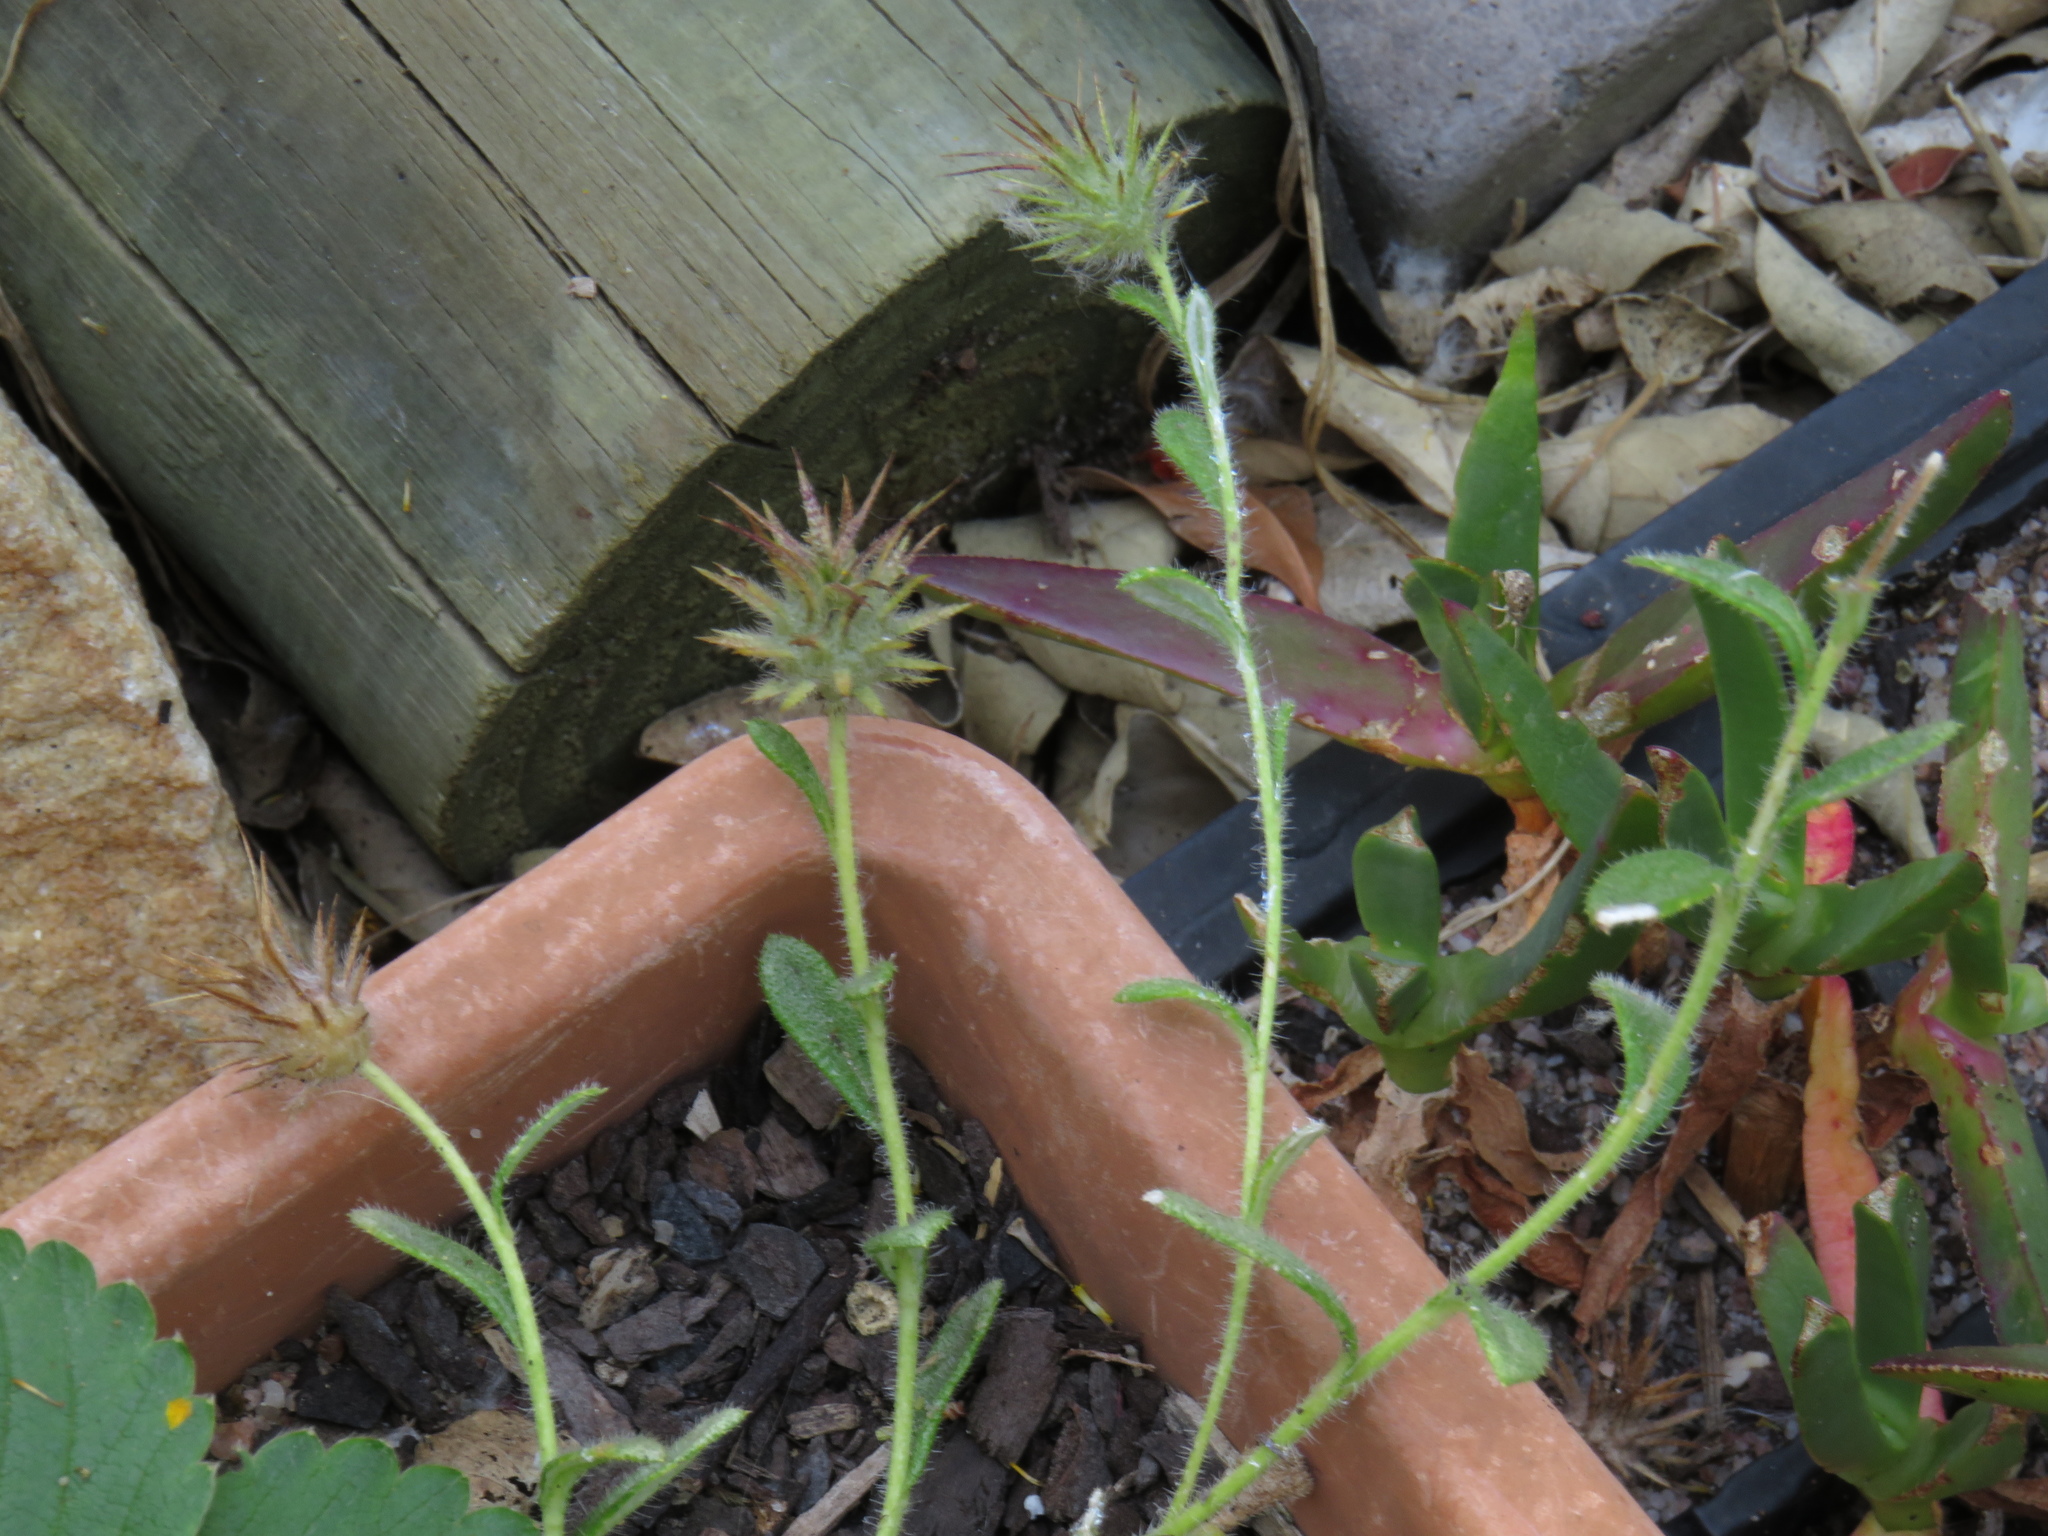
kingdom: Plantae
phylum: Tracheophyta
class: Magnoliopsida
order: Asterales
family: Asteraceae
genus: Gorteria
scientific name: Gorteria personata
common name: Gorteria
